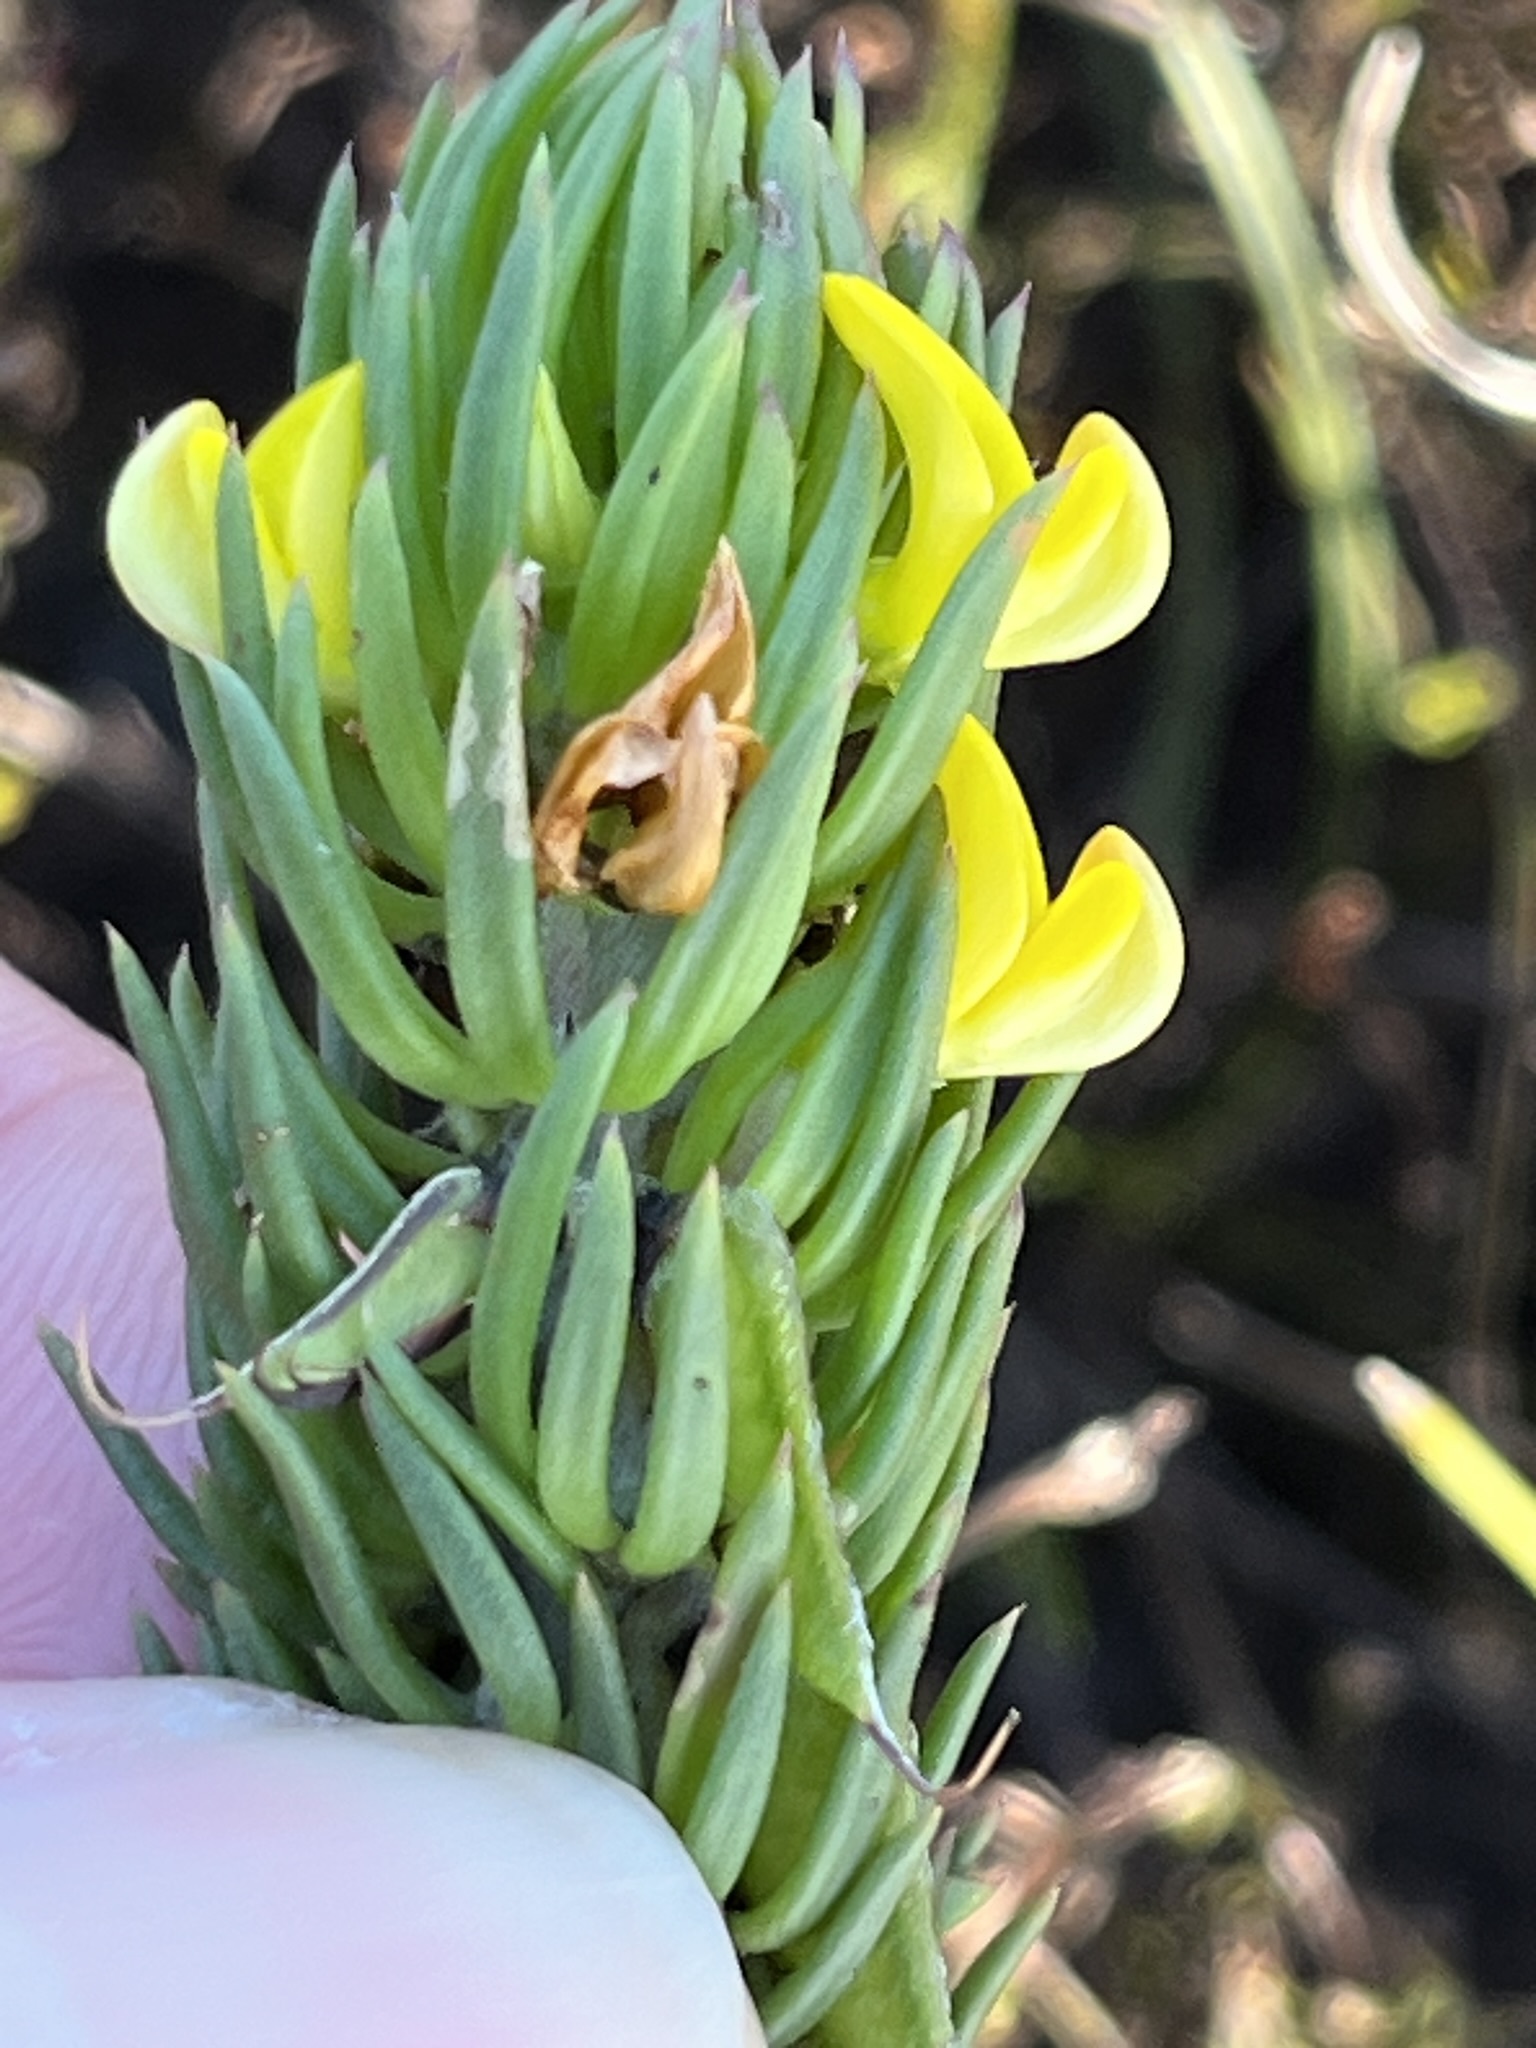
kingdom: Plantae
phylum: Tracheophyta
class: Magnoliopsida
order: Fabales
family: Fabaceae
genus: Aspalathus
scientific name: Aspalathus mundiana
